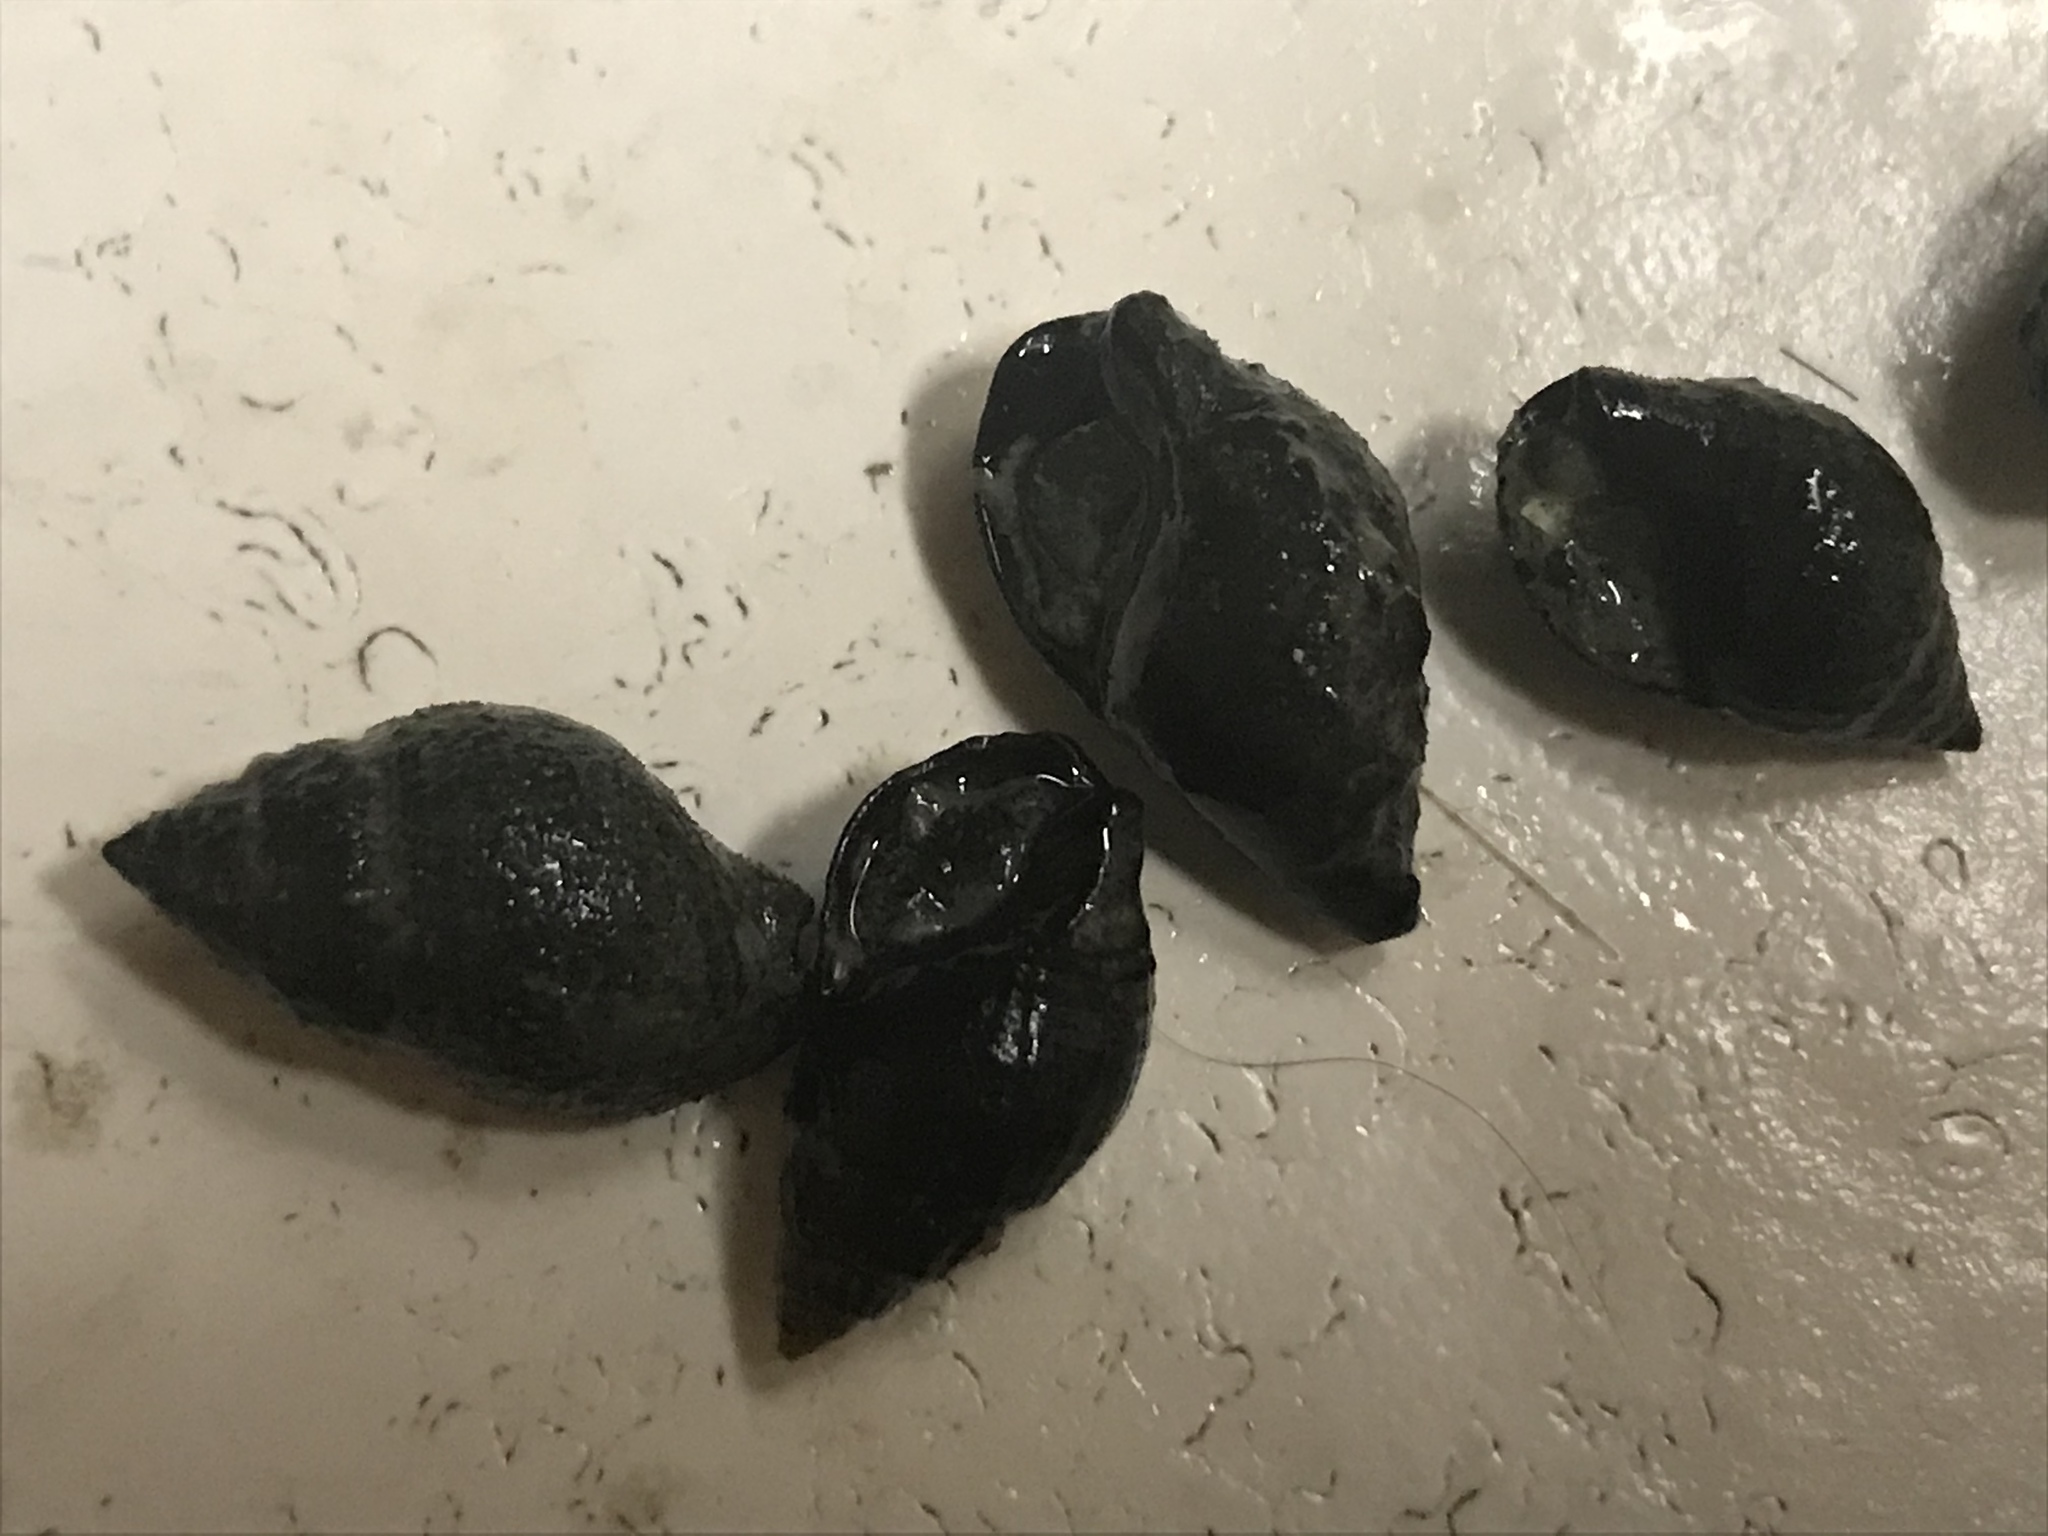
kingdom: Animalia
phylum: Mollusca
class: Gastropoda
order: Neogastropoda
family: Nassariidae
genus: Ilyanassa
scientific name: Ilyanassa obsoleta
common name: Eastern mudsnail
